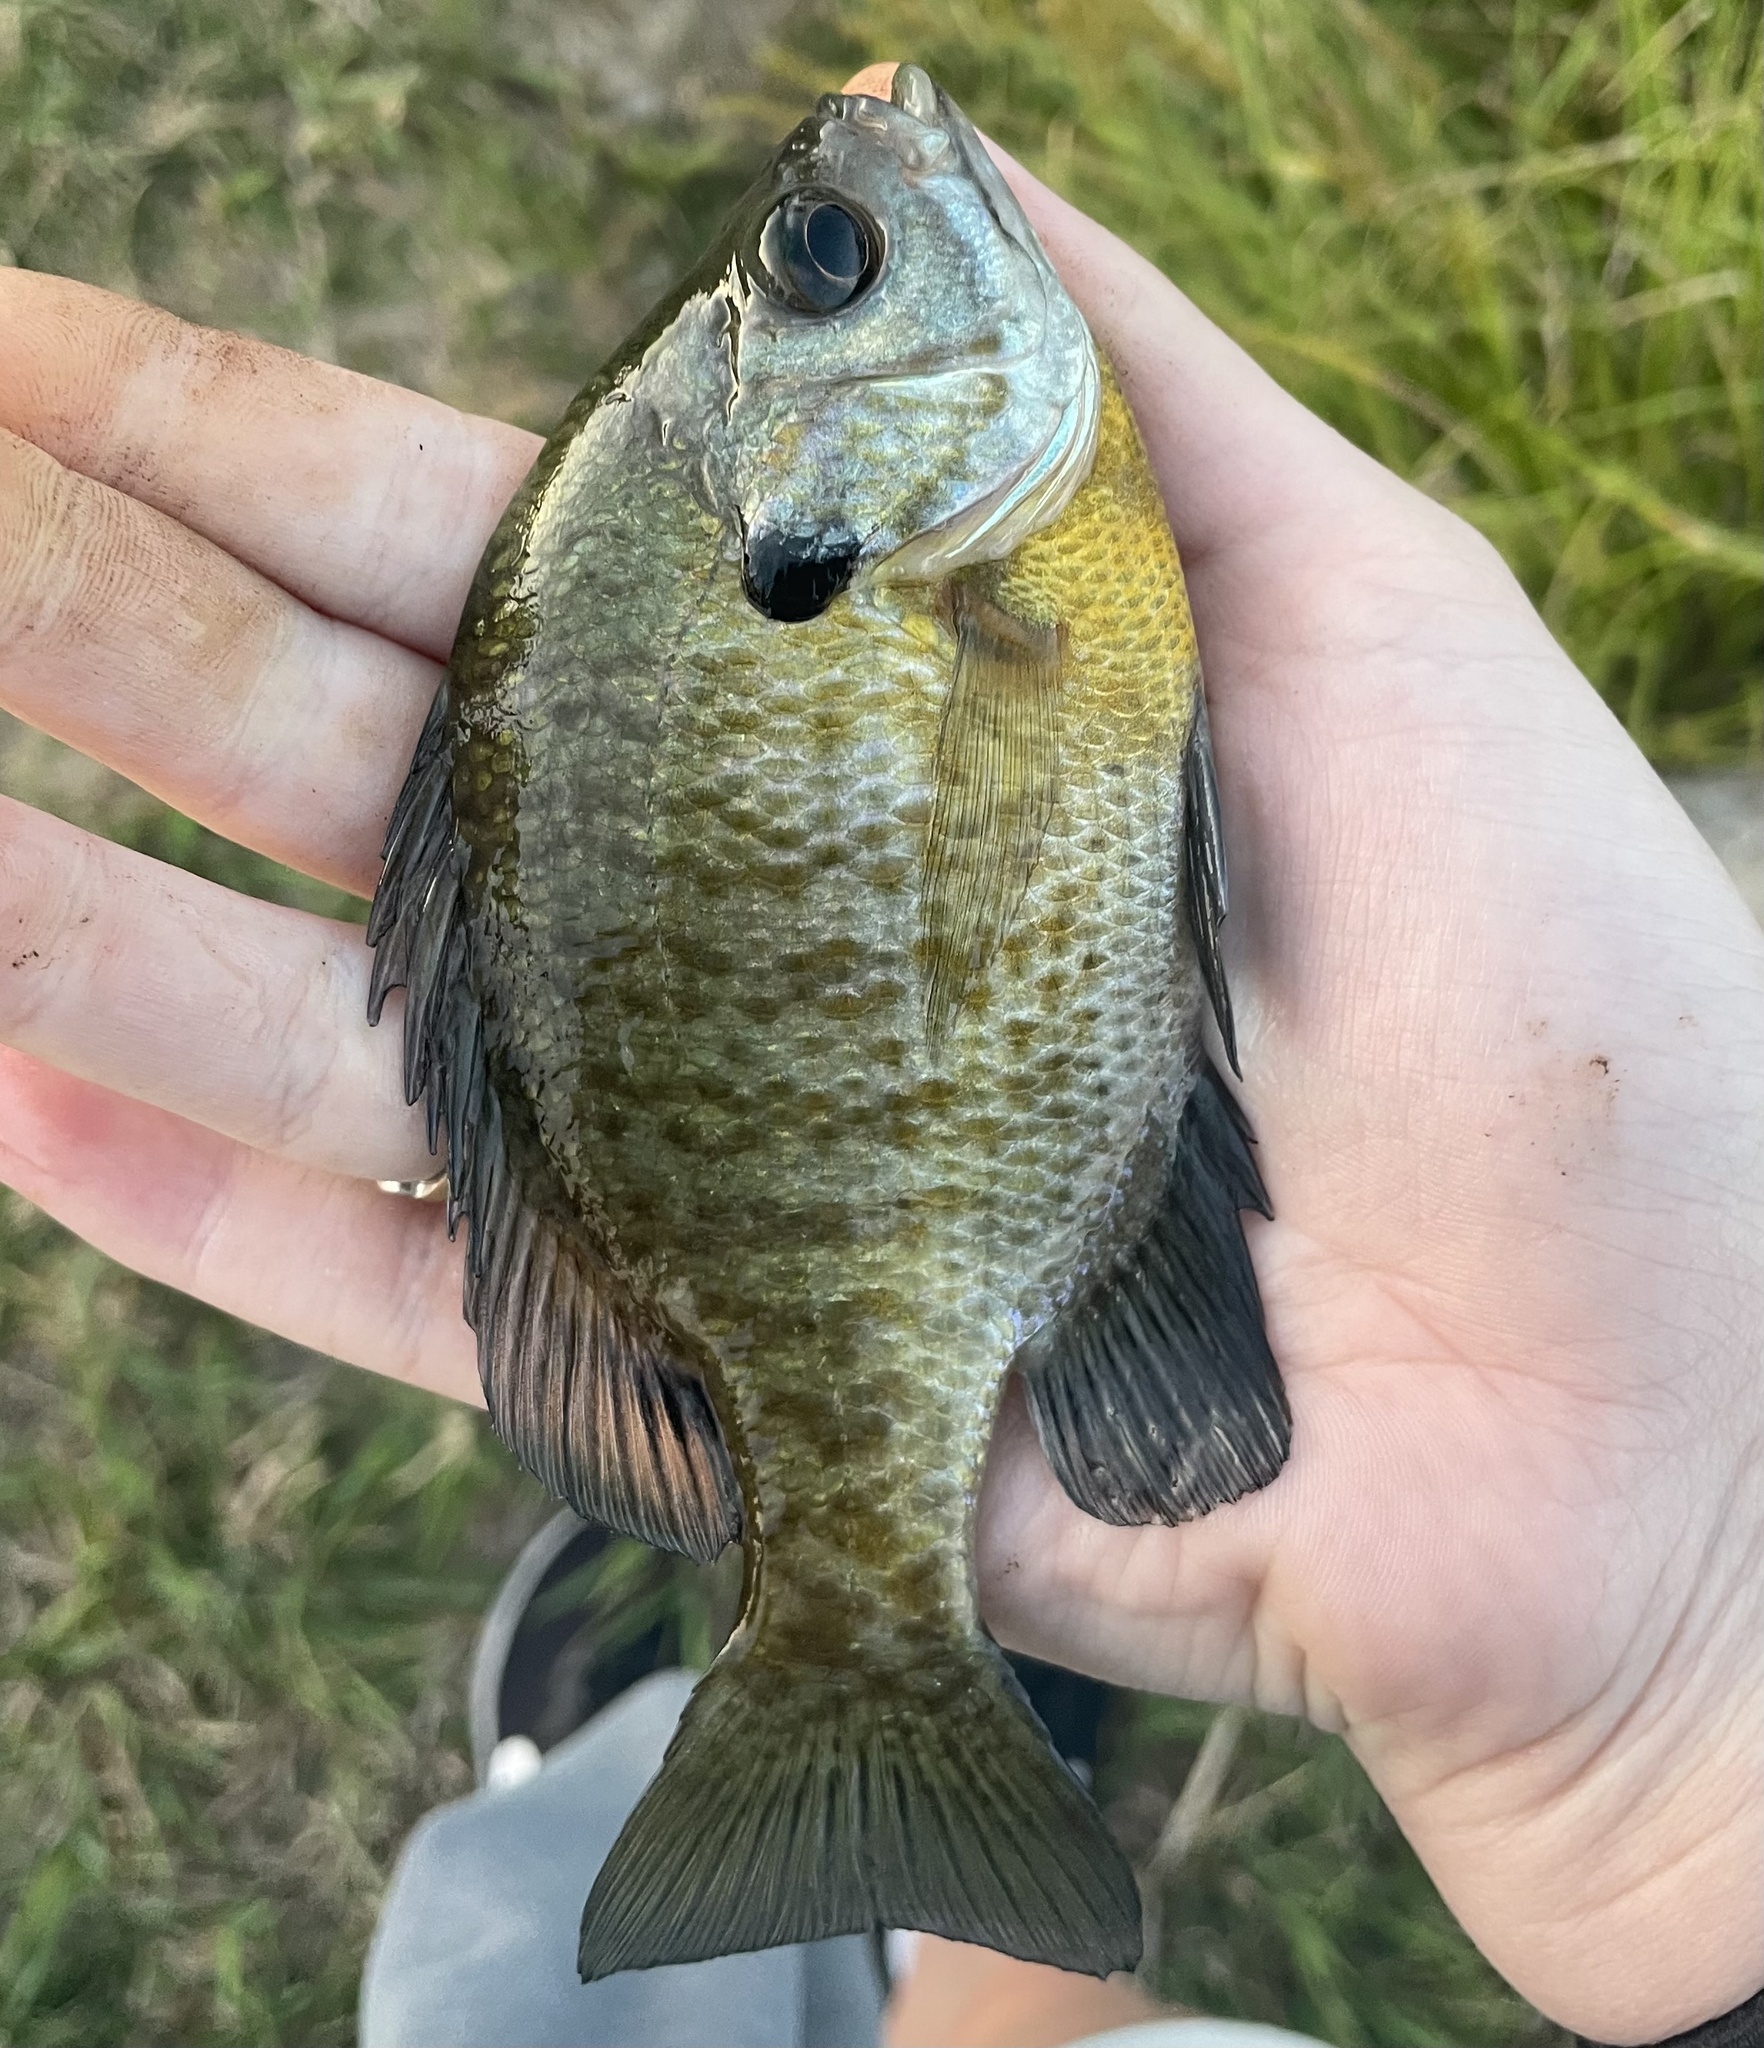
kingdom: Animalia
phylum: Chordata
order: Perciformes
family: Centrarchidae
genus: Lepomis
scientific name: Lepomis macrochirus
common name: Bluegill
